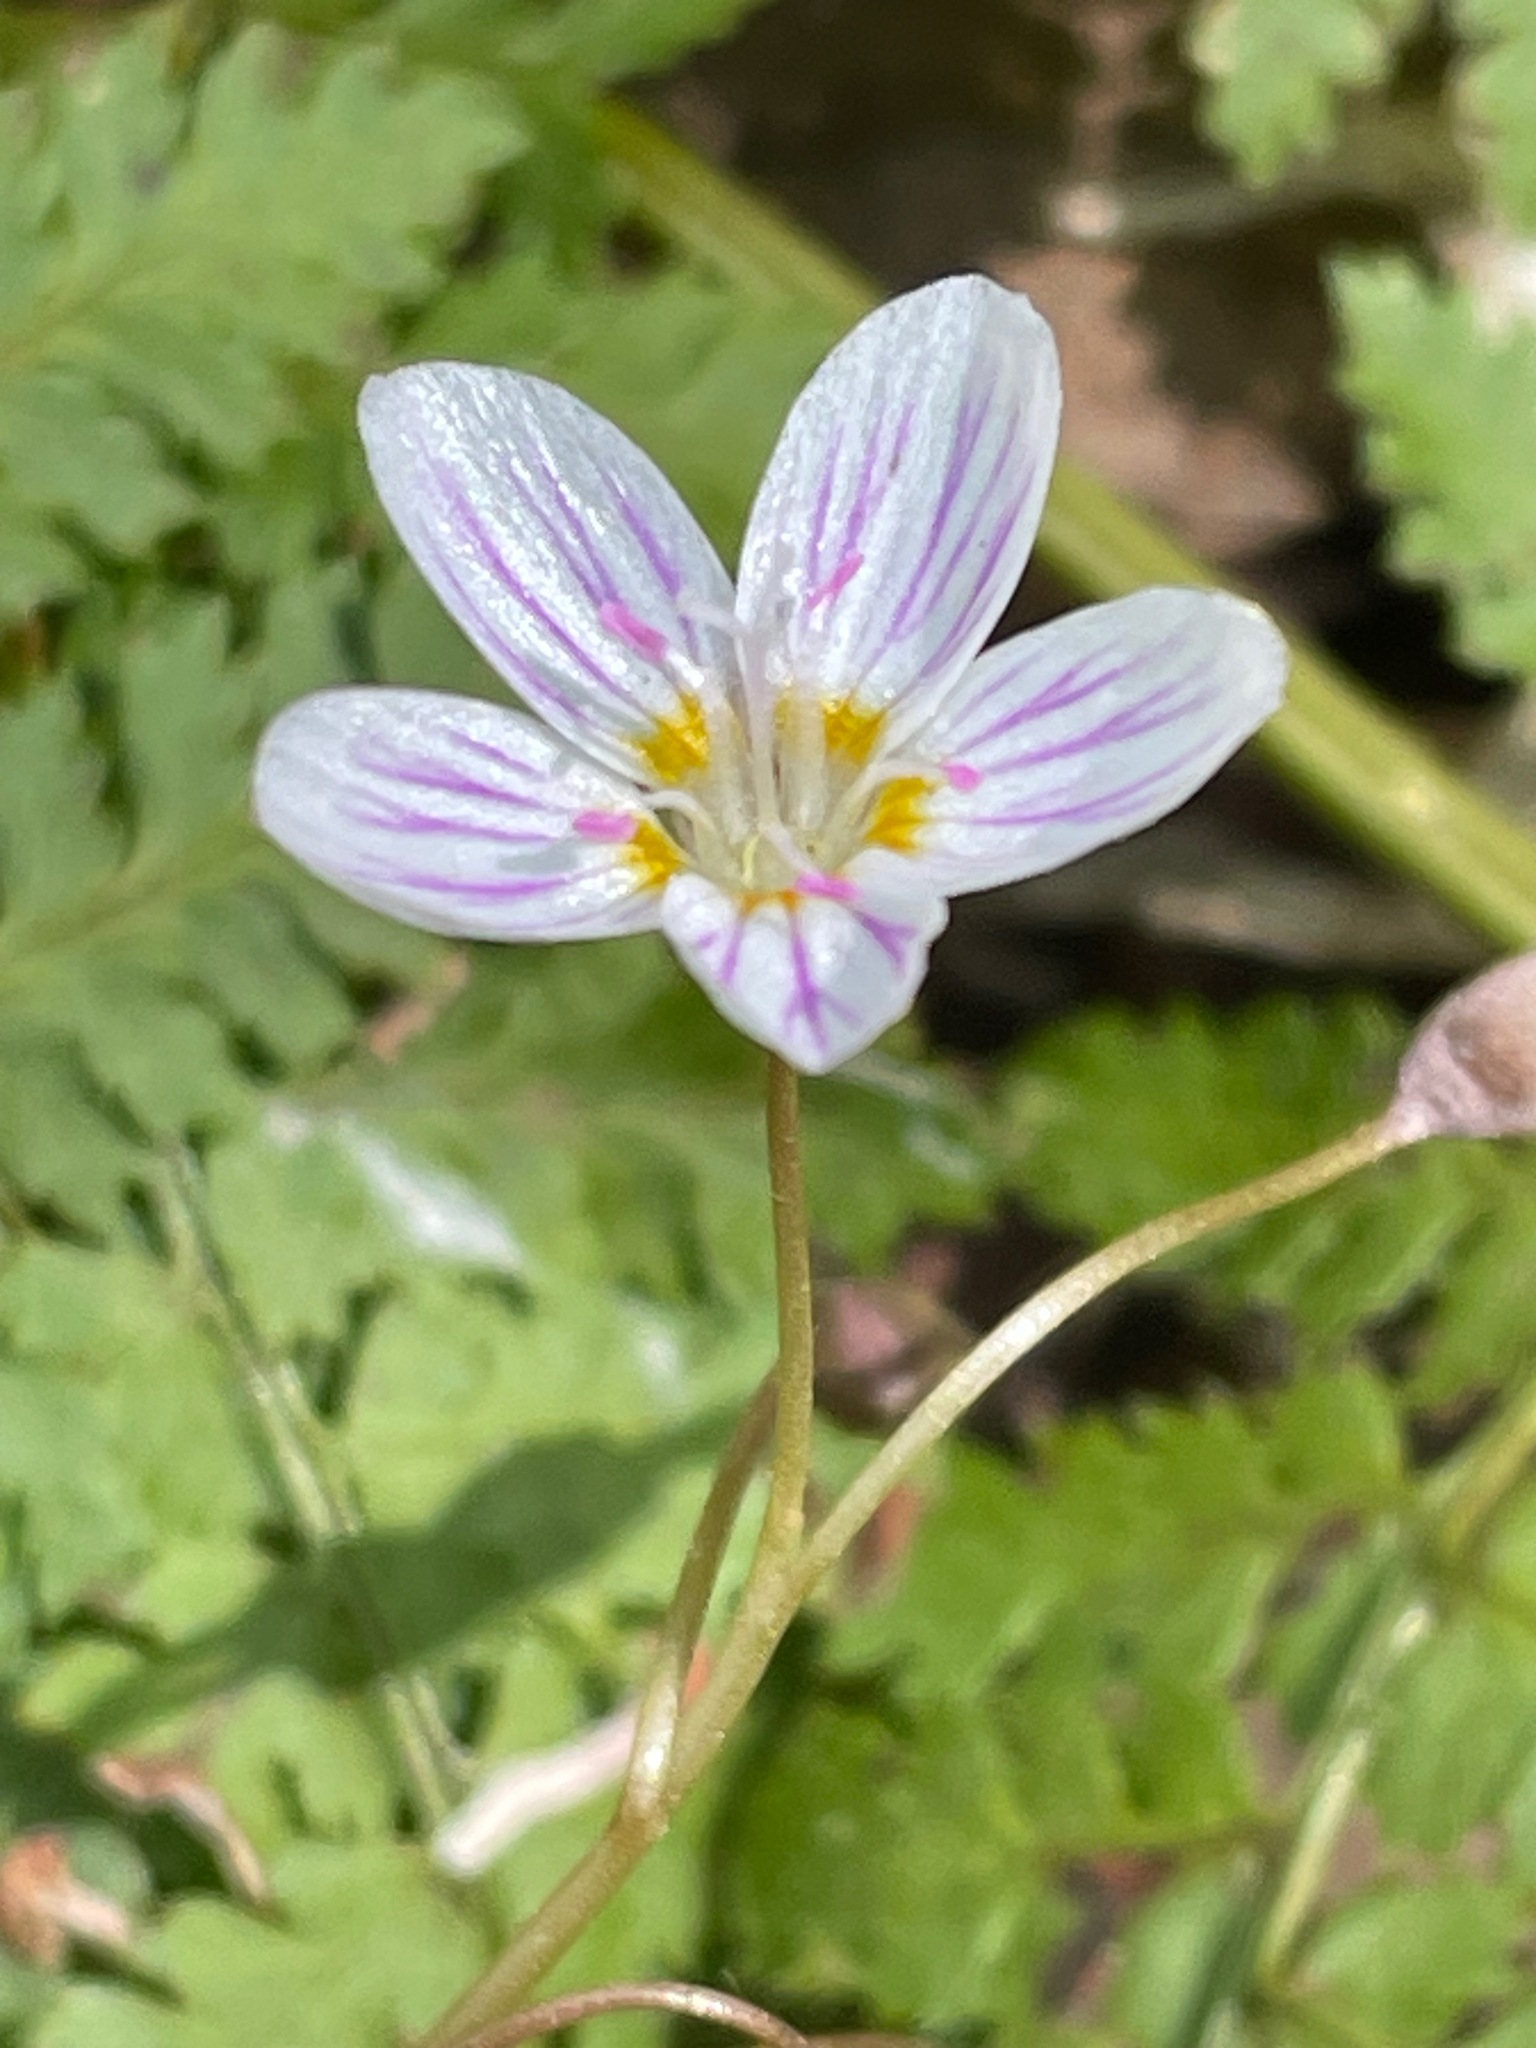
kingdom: Plantae
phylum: Tracheophyta
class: Magnoliopsida
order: Caryophyllales
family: Montiaceae
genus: Claytonia
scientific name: Claytonia caroliniana
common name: Carolina spring beauty
